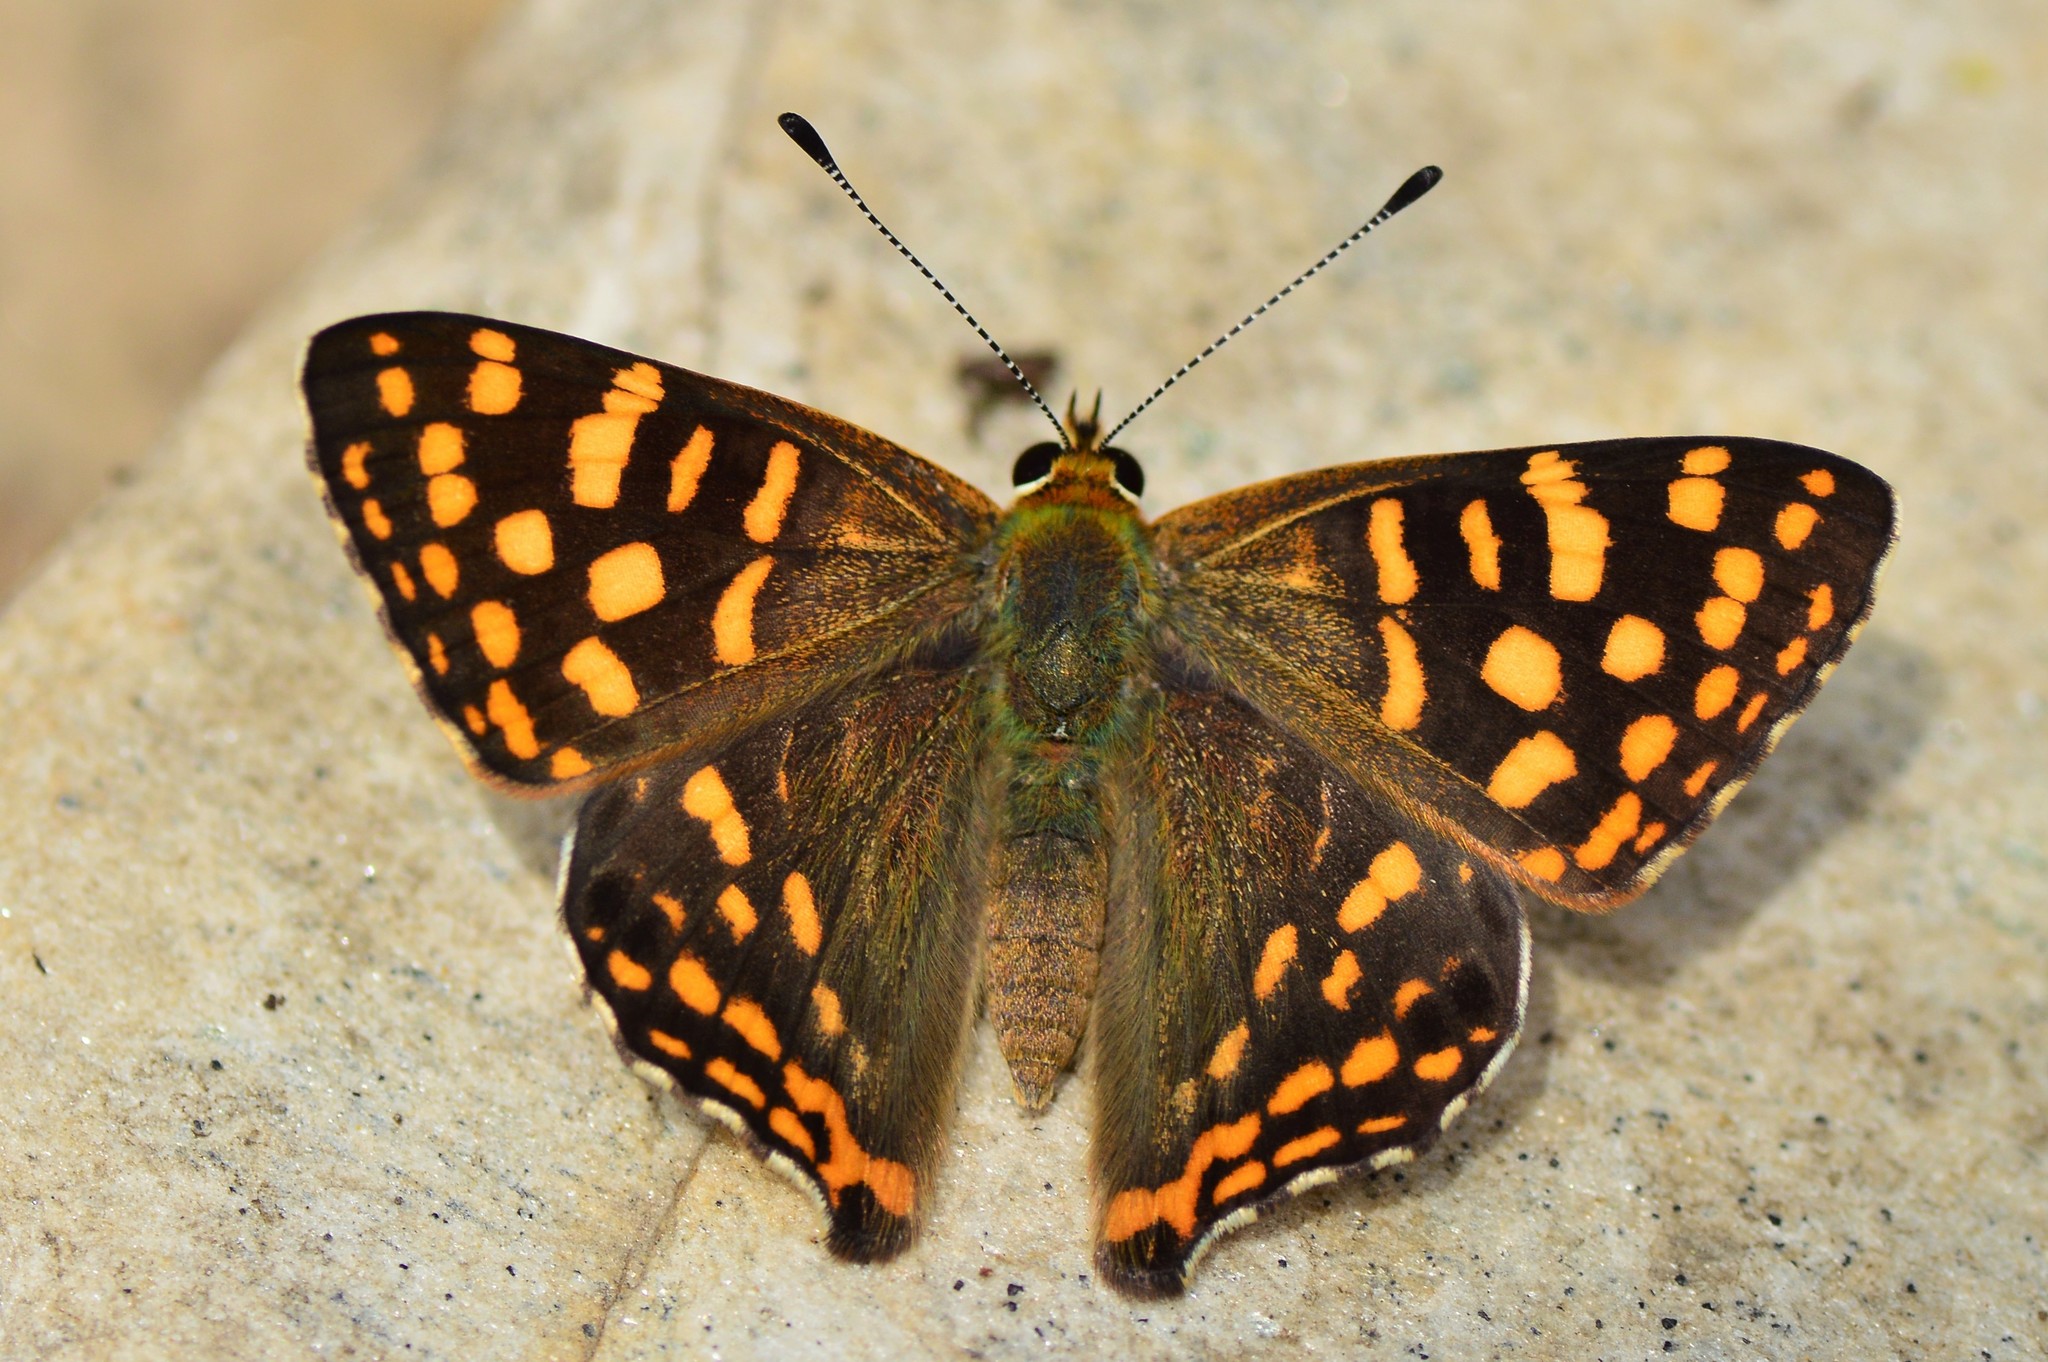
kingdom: Animalia
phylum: Arthropoda
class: Insecta
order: Lepidoptera
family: Lycaenidae
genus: Dodona
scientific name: Dodona durga
